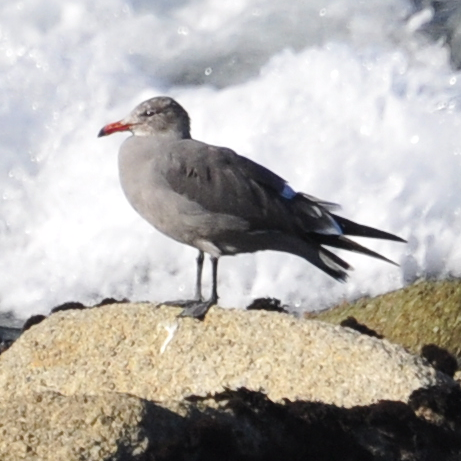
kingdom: Animalia
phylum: Chordata
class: Aves
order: Charadriiformes
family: Laridae
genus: Larus
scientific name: Larus heermanni
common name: Heermann's gull
